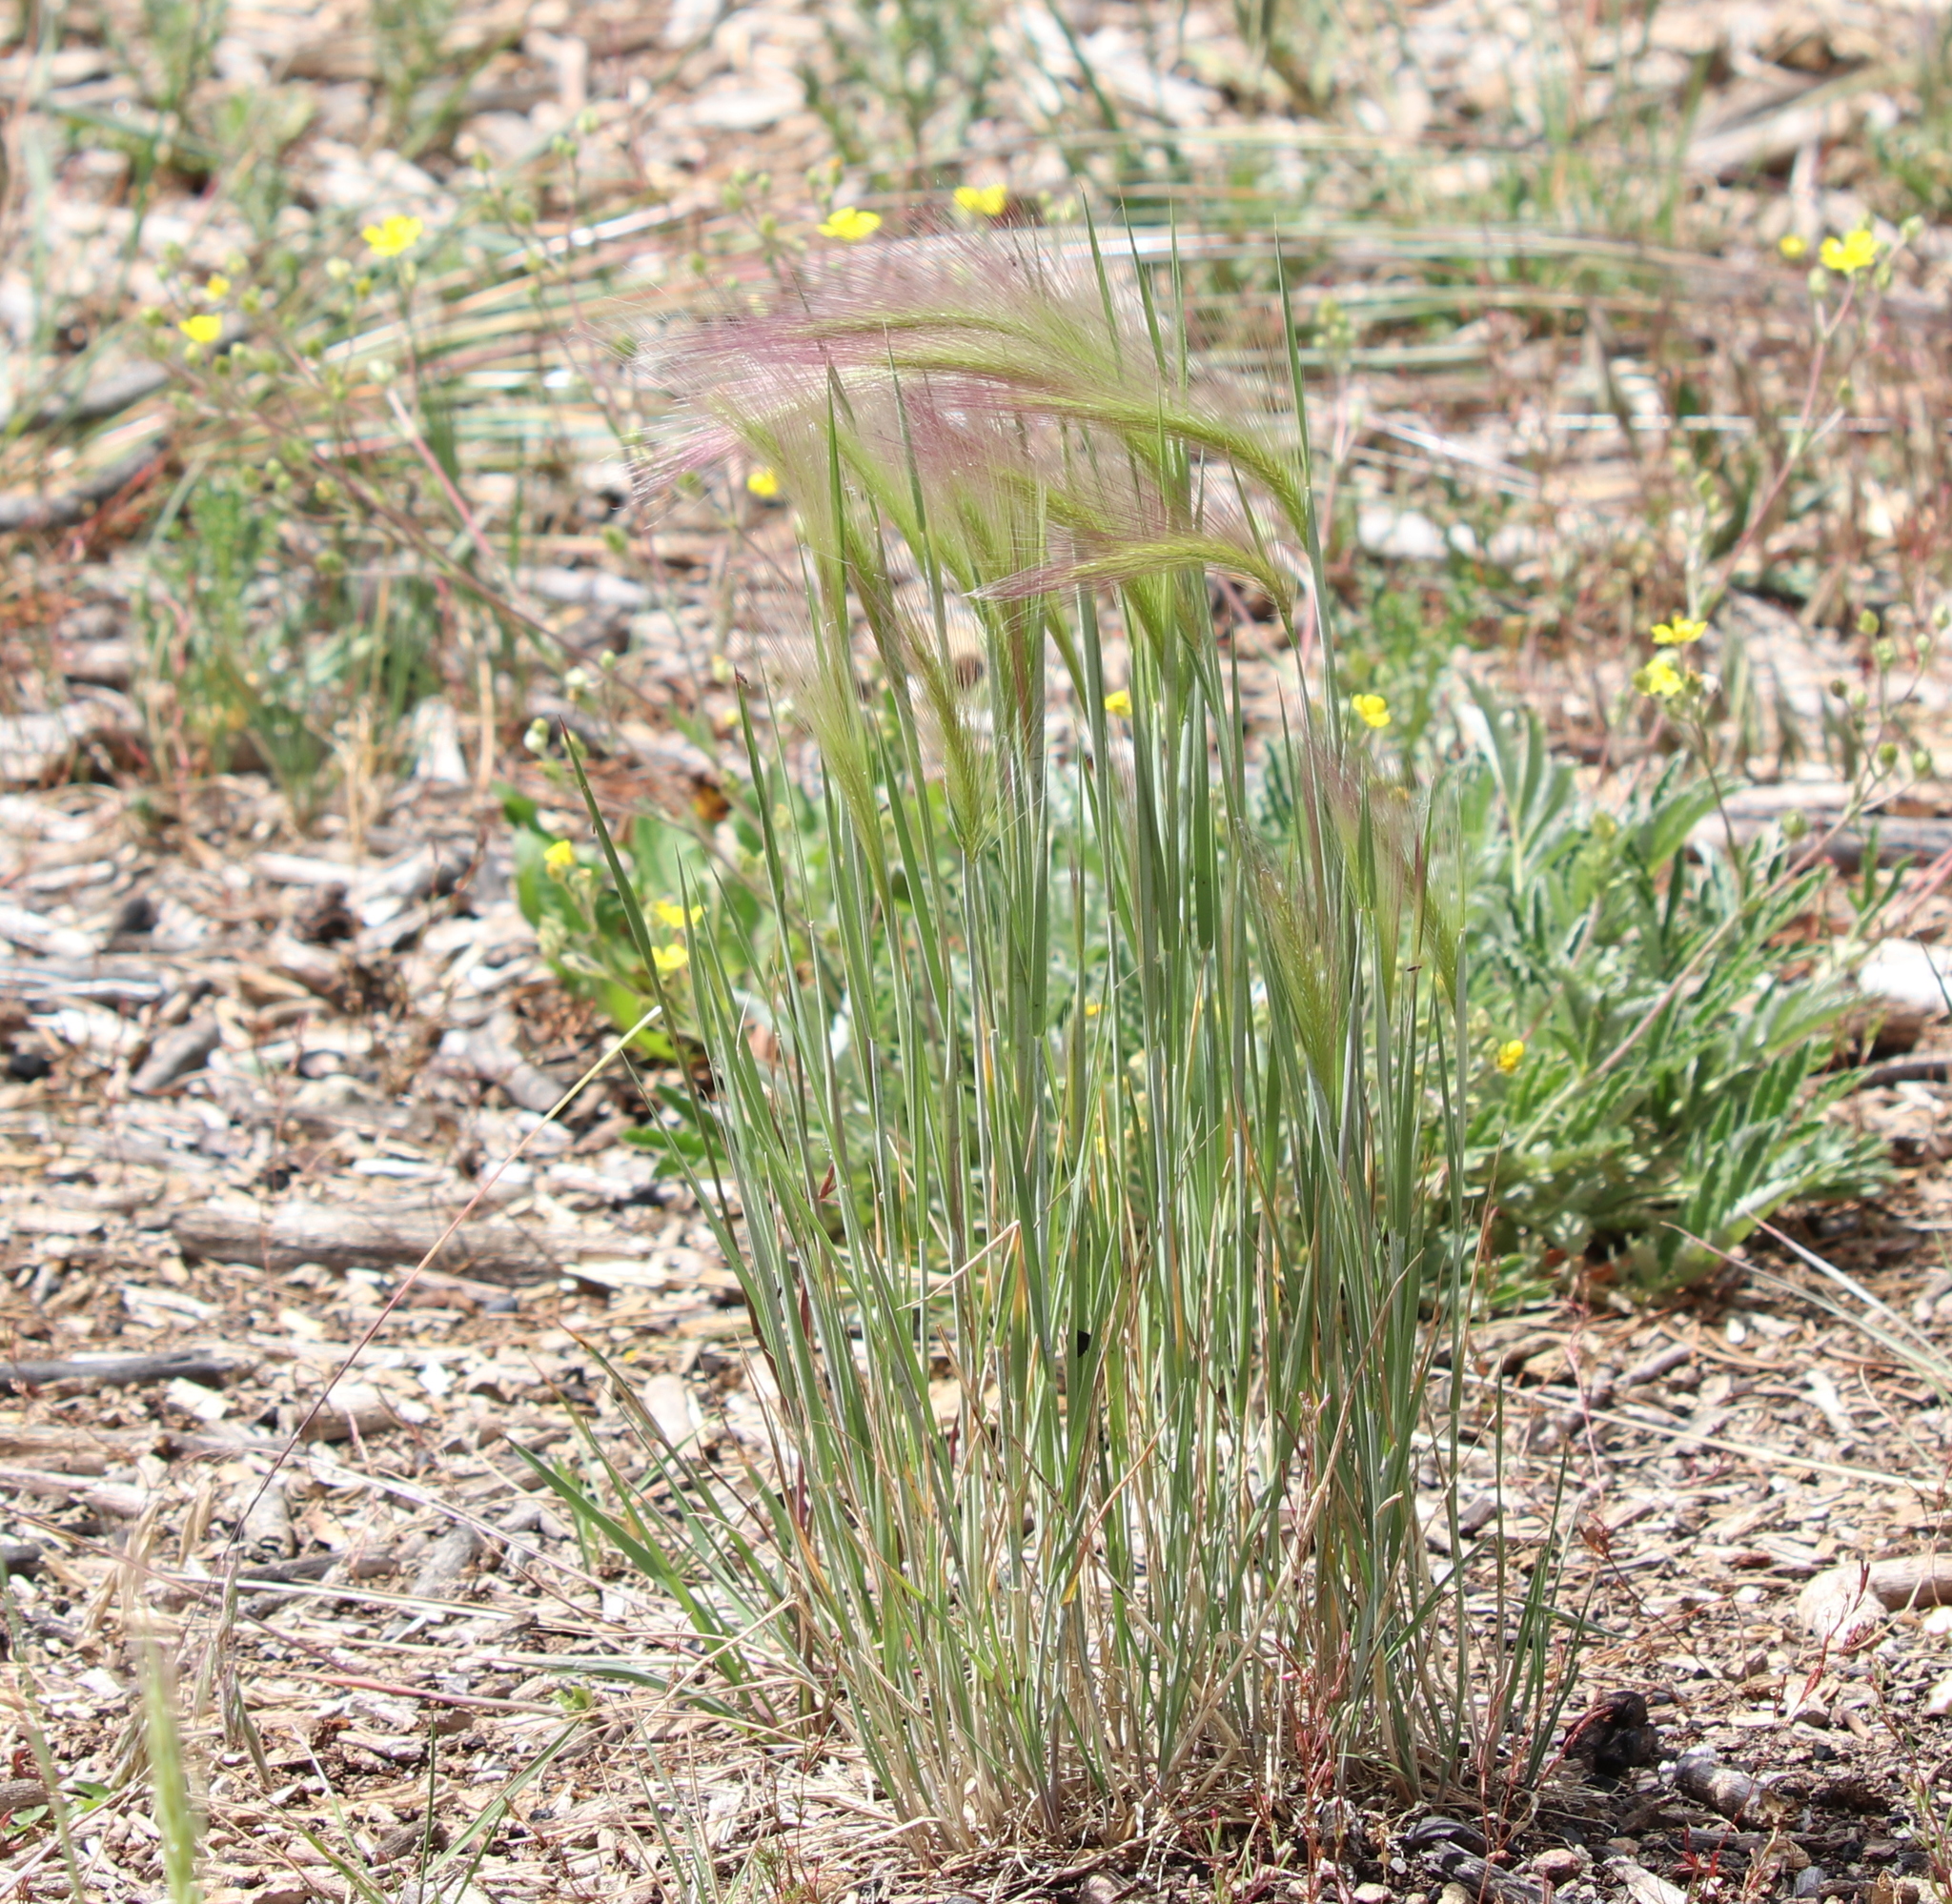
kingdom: Plantae
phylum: Tracheophyta
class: Liliopsida
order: Poales
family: Poaceae
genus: Hordeum
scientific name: Hordeum jubatum
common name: Foxtail barley
